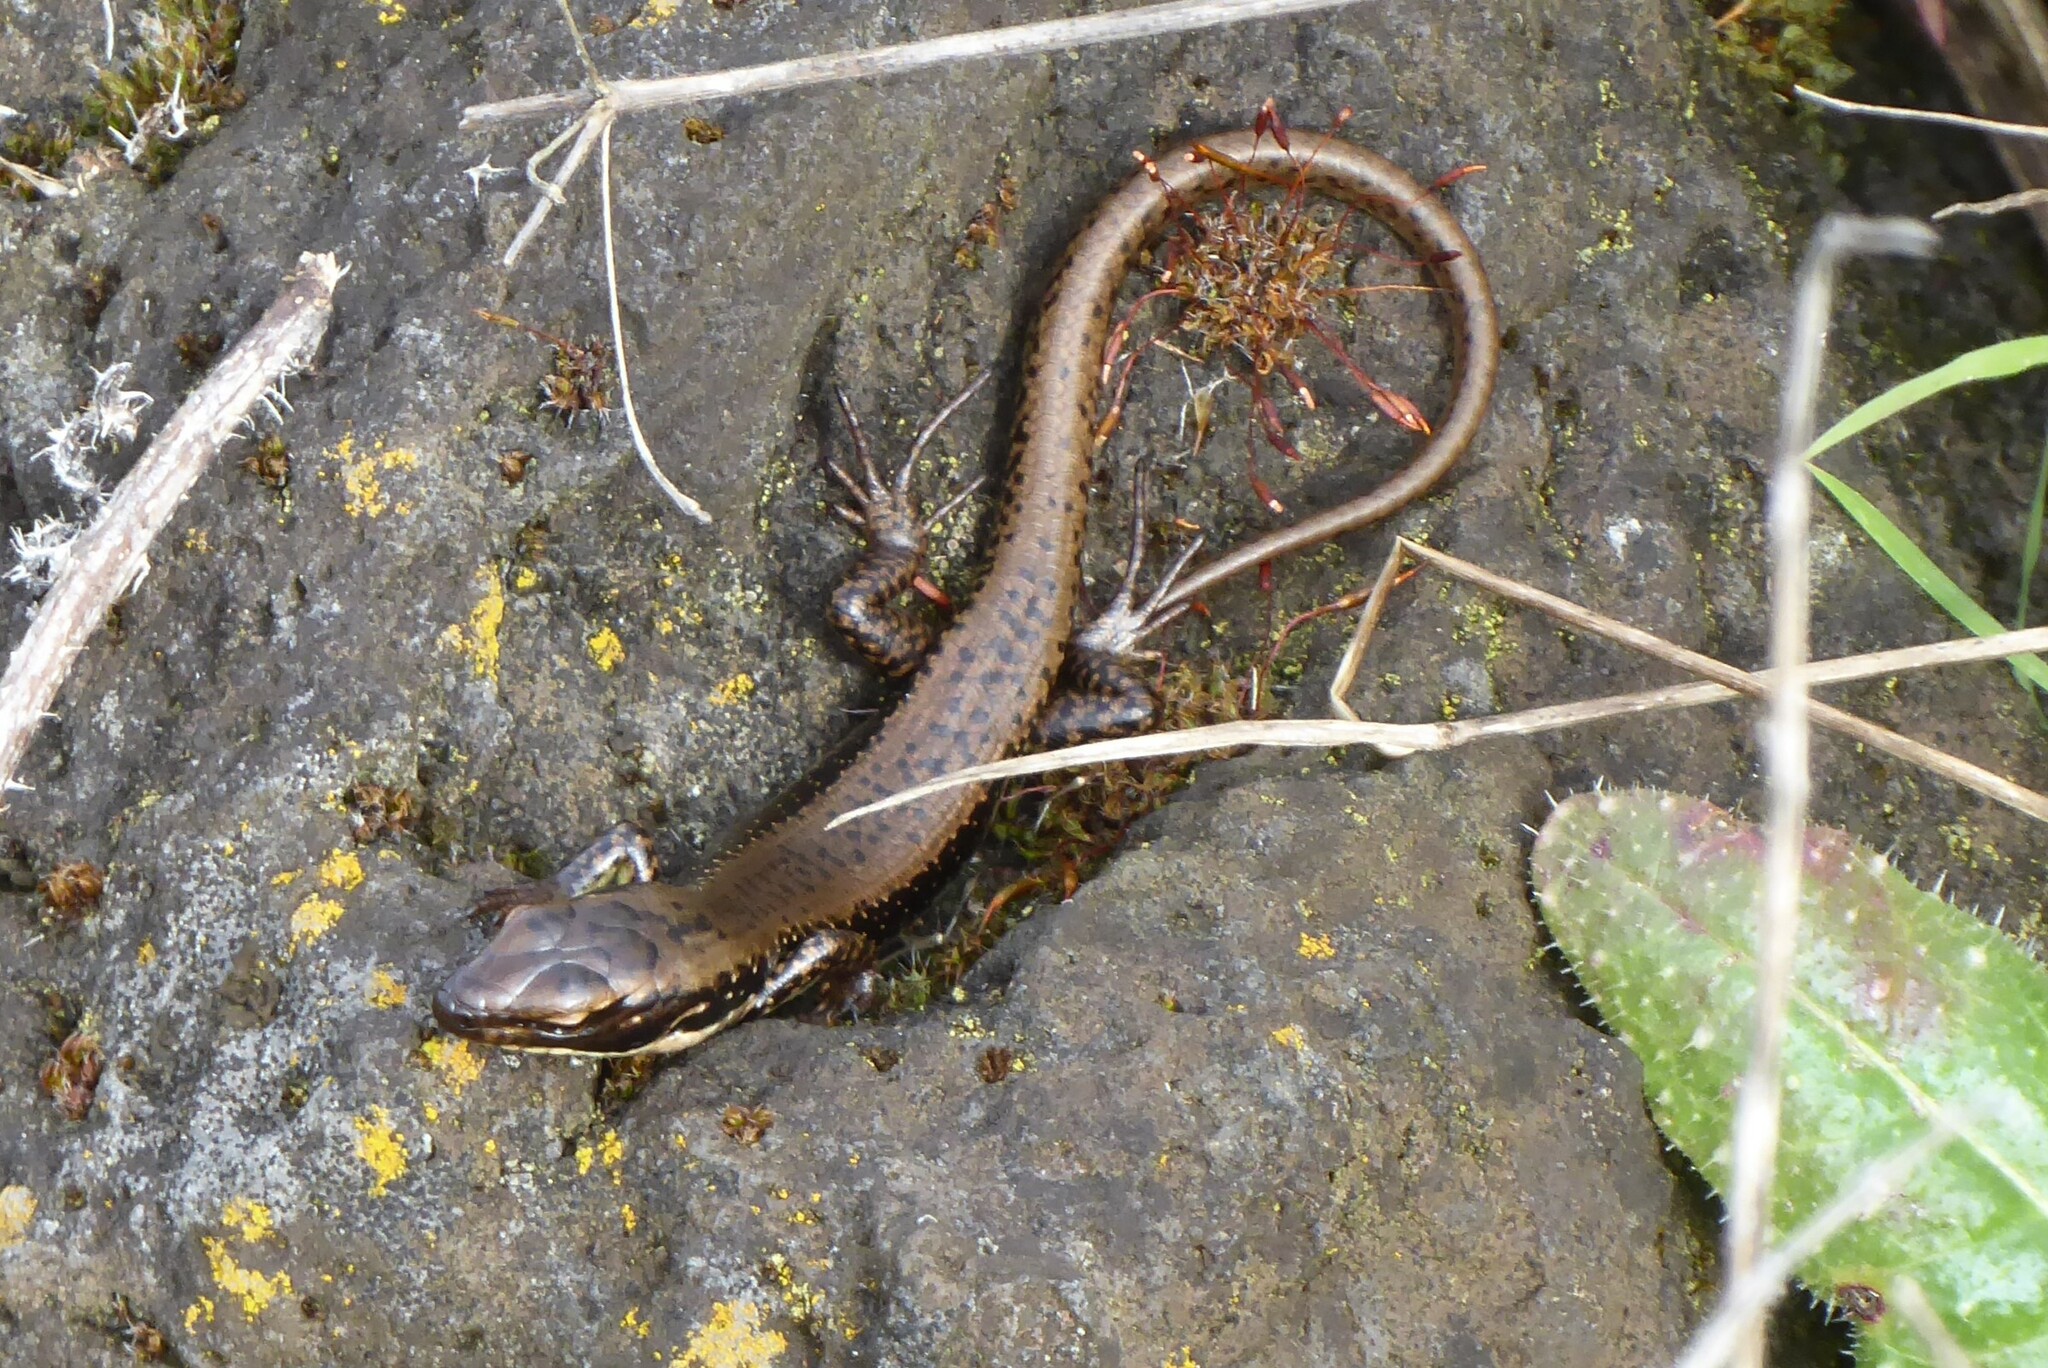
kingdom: Animalia
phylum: Chordata
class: Squamata
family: Scincidae
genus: Eulamprus
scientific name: Eulamprus tympanum
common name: Cool-temperate water-skink
